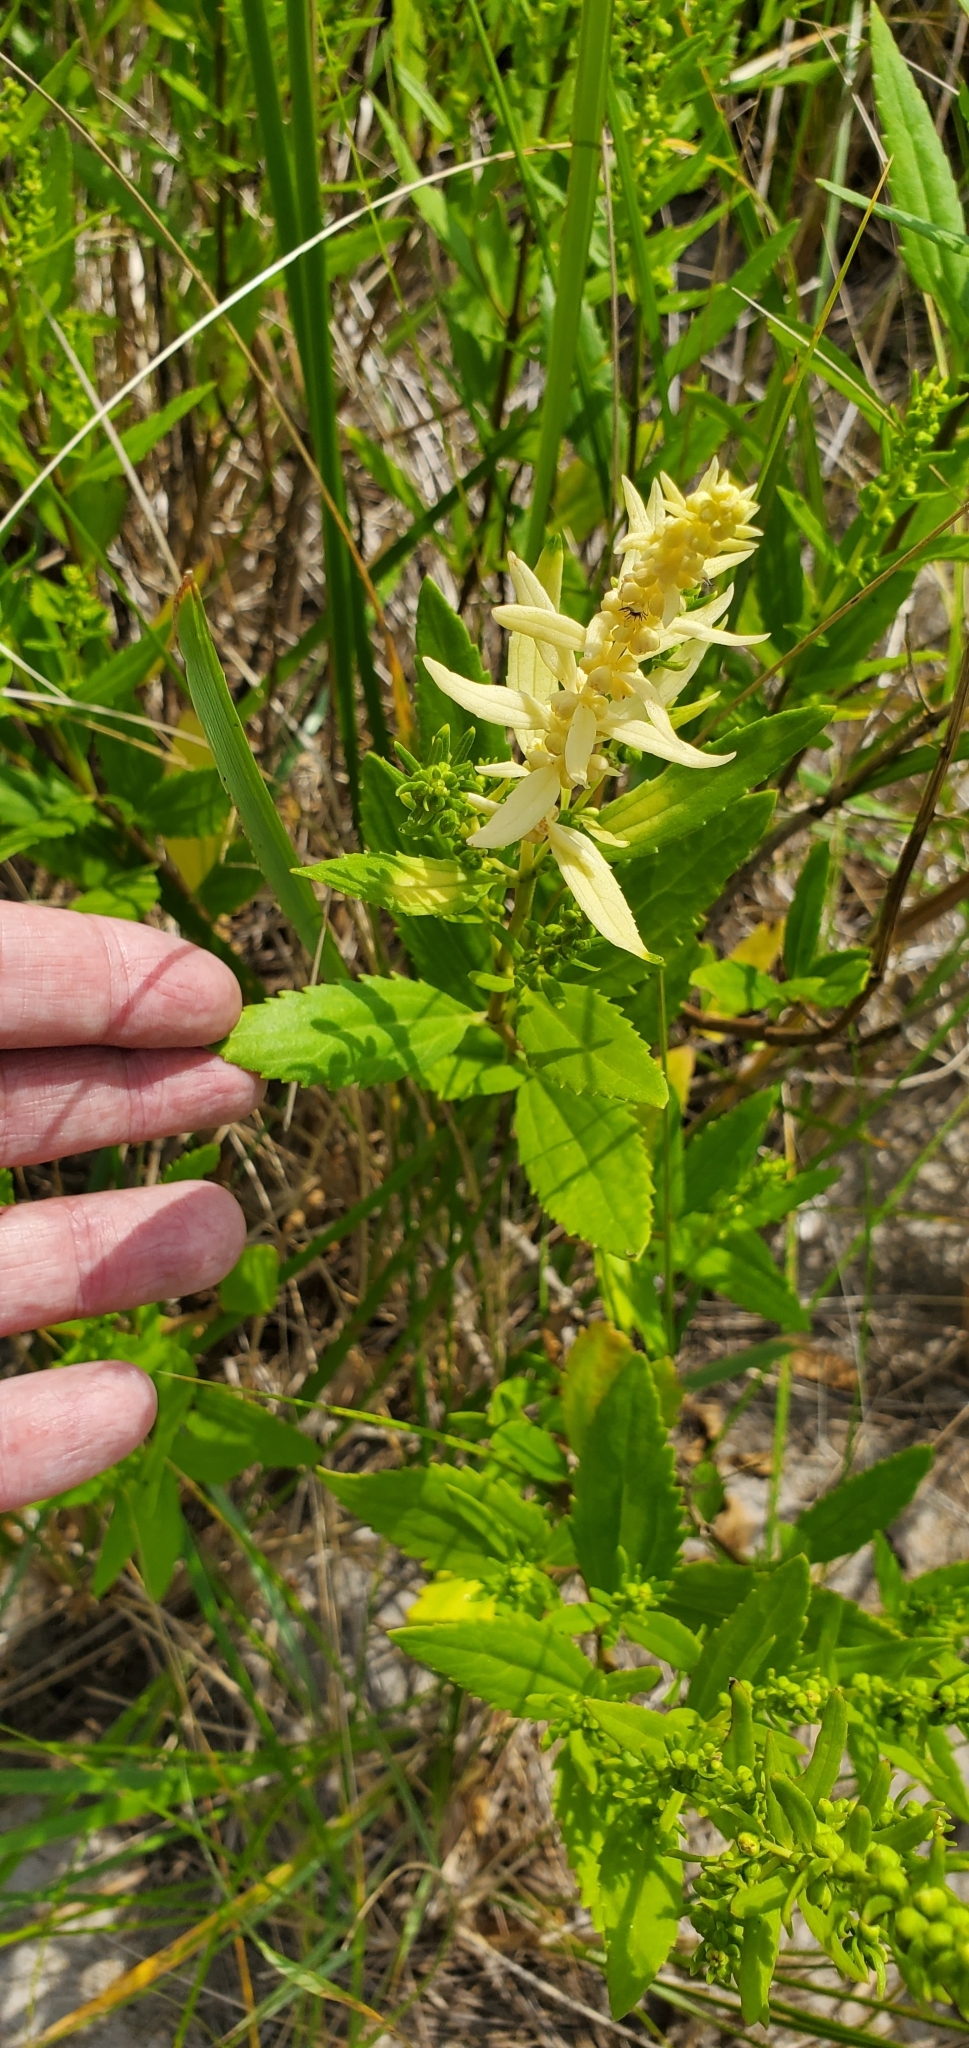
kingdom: Plantae
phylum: Tracheophyta
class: Magnoliopsida
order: Asterales
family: Asteraceae
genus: Iva
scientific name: Iva frutescens
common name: Big-leaved marsh-elder
